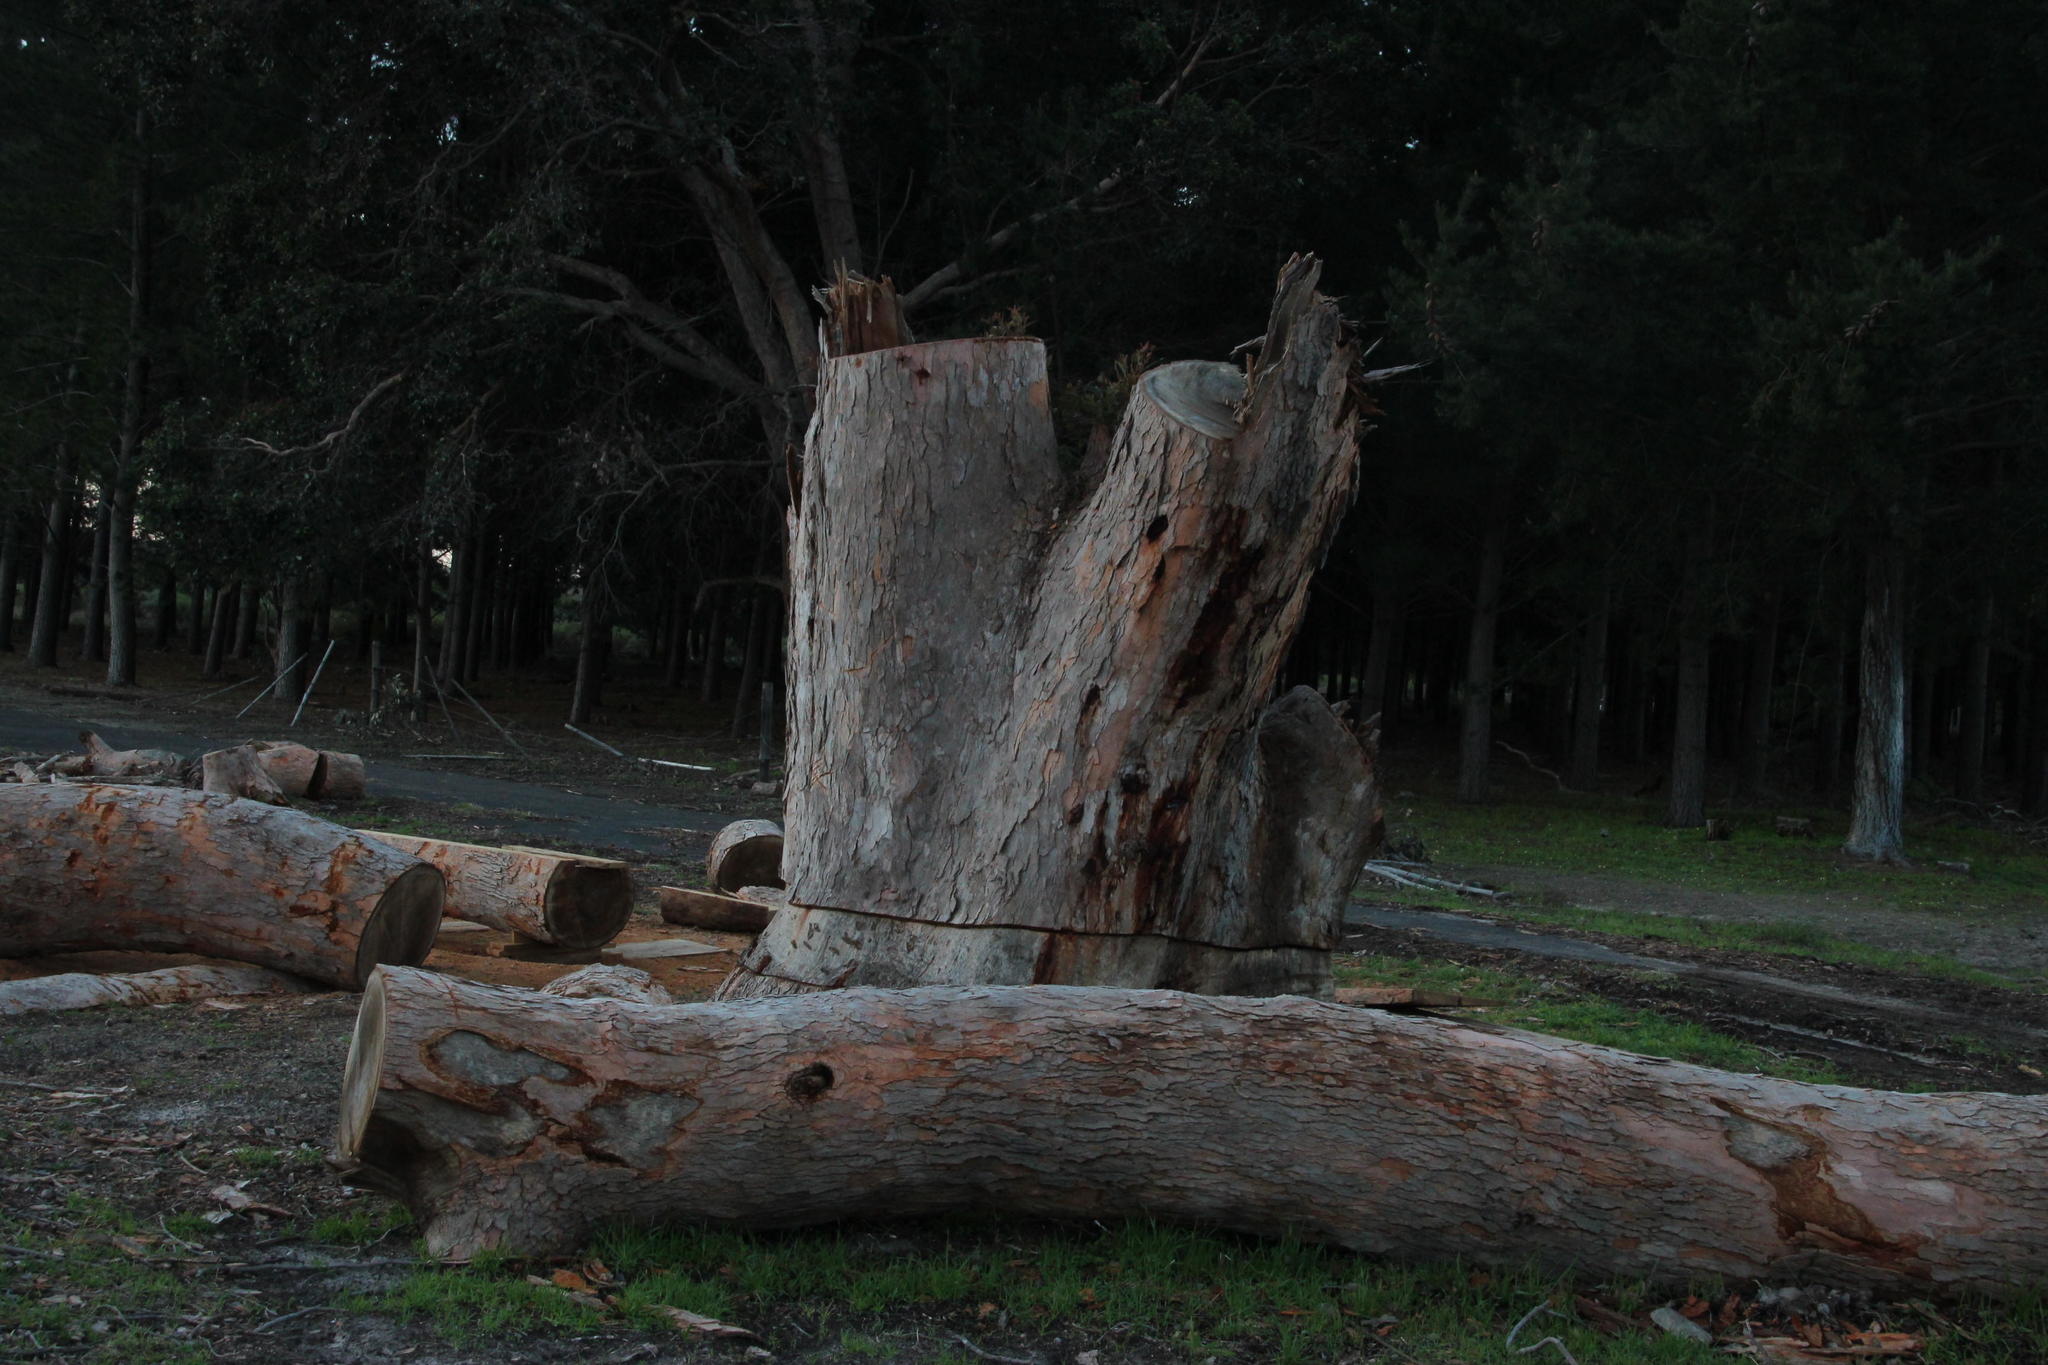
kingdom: Plantae
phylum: Tracheophyta
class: Magnoliopsida
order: Myrtales
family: Myrtaceae
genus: Corymbia
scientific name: Corymbia ficifolia
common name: Redflower gum
